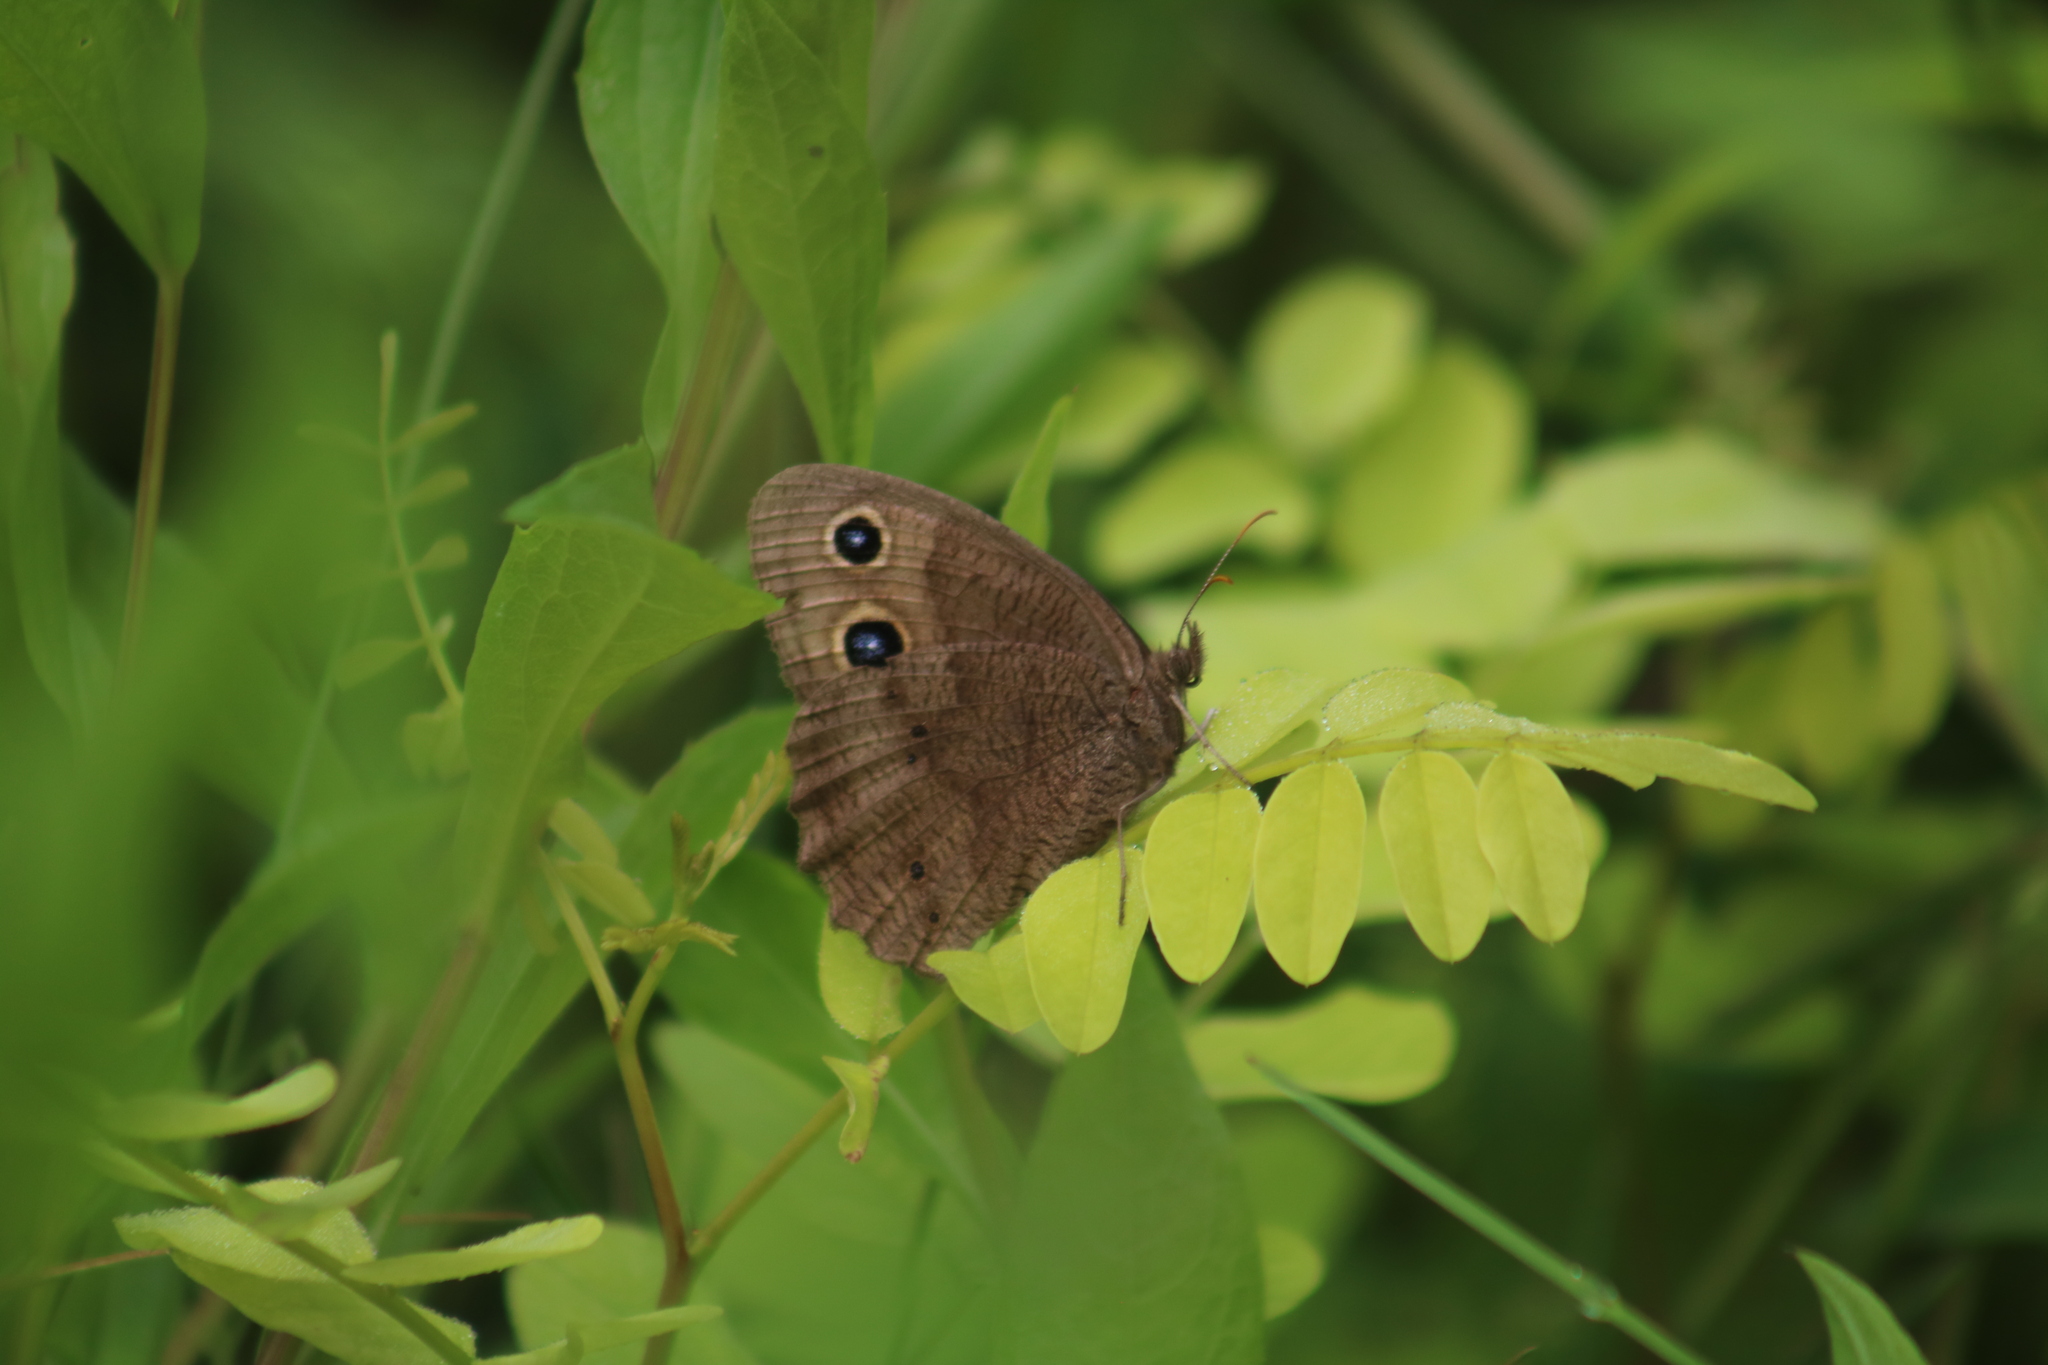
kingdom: Animalia
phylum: Arthropoda
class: Insecta
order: Lepidoptera
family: Nymphalidae
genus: Cercyonis
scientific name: Cercyonis pegala
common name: Common wood-nymph
